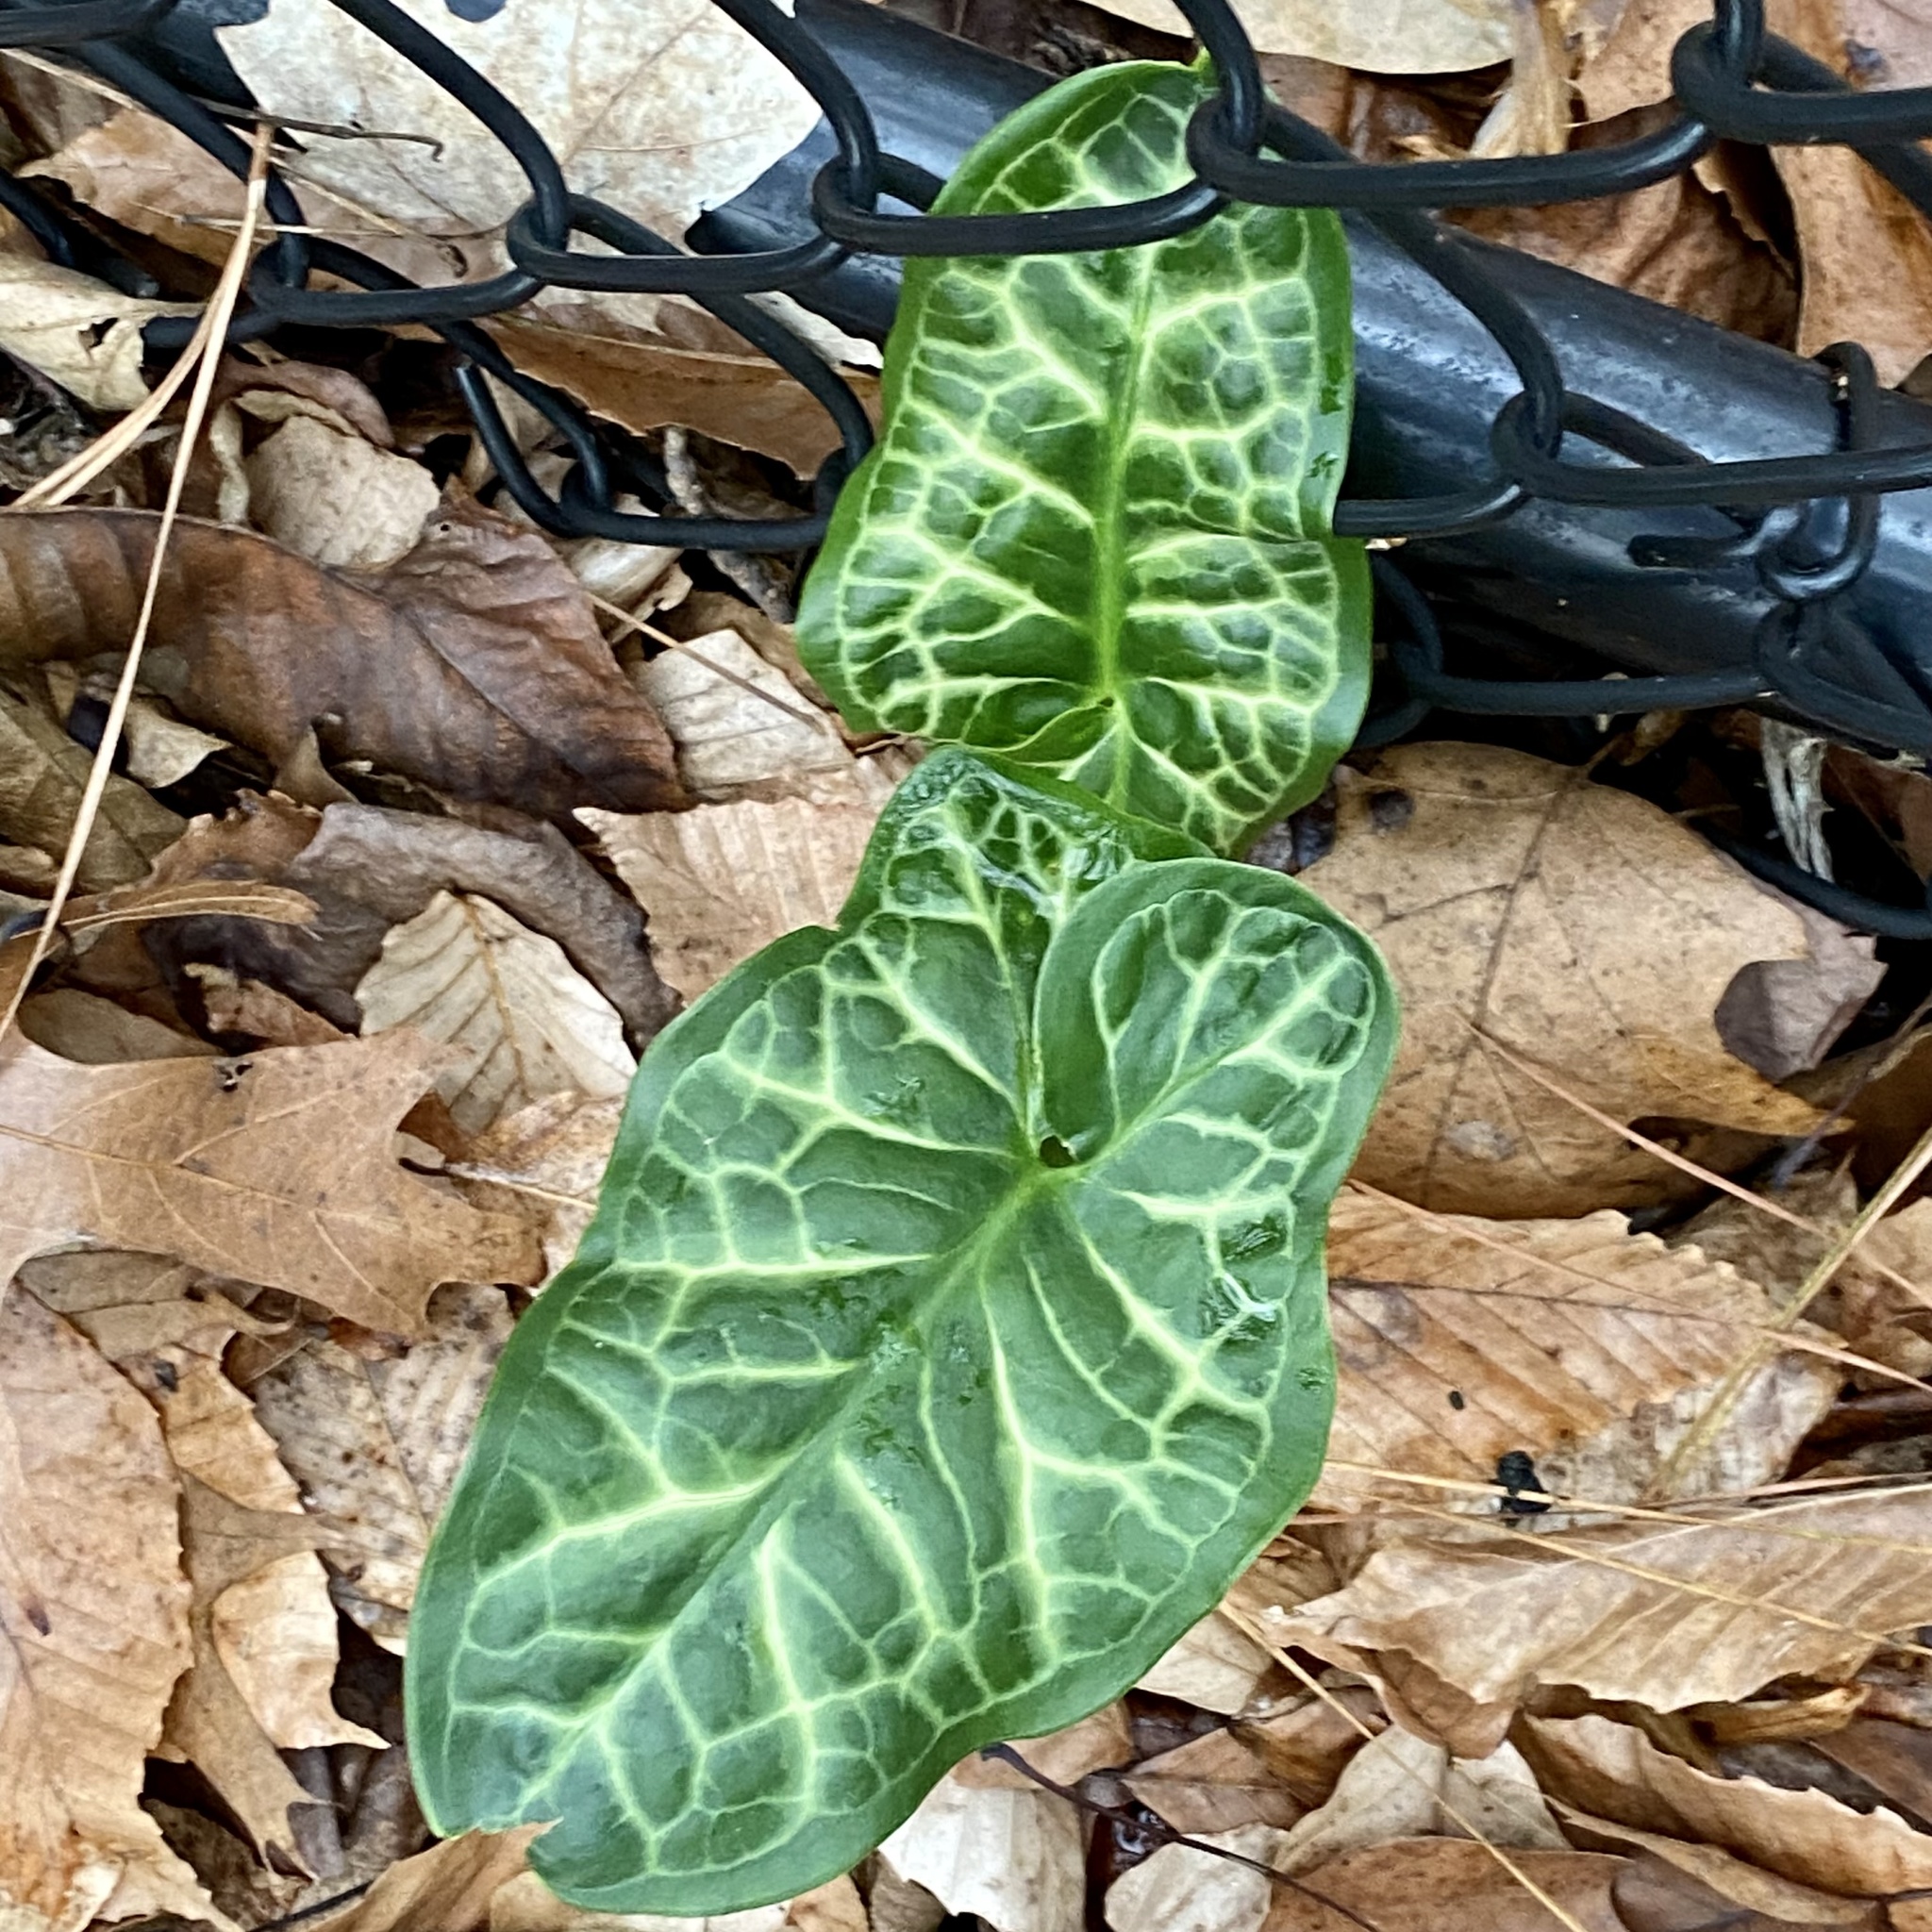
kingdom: Plantae
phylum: Tracheophyta
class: Liliopsida
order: Alismatales
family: Araceae
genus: Arum
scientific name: Arum italicum
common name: Italian lords-and-ladies
